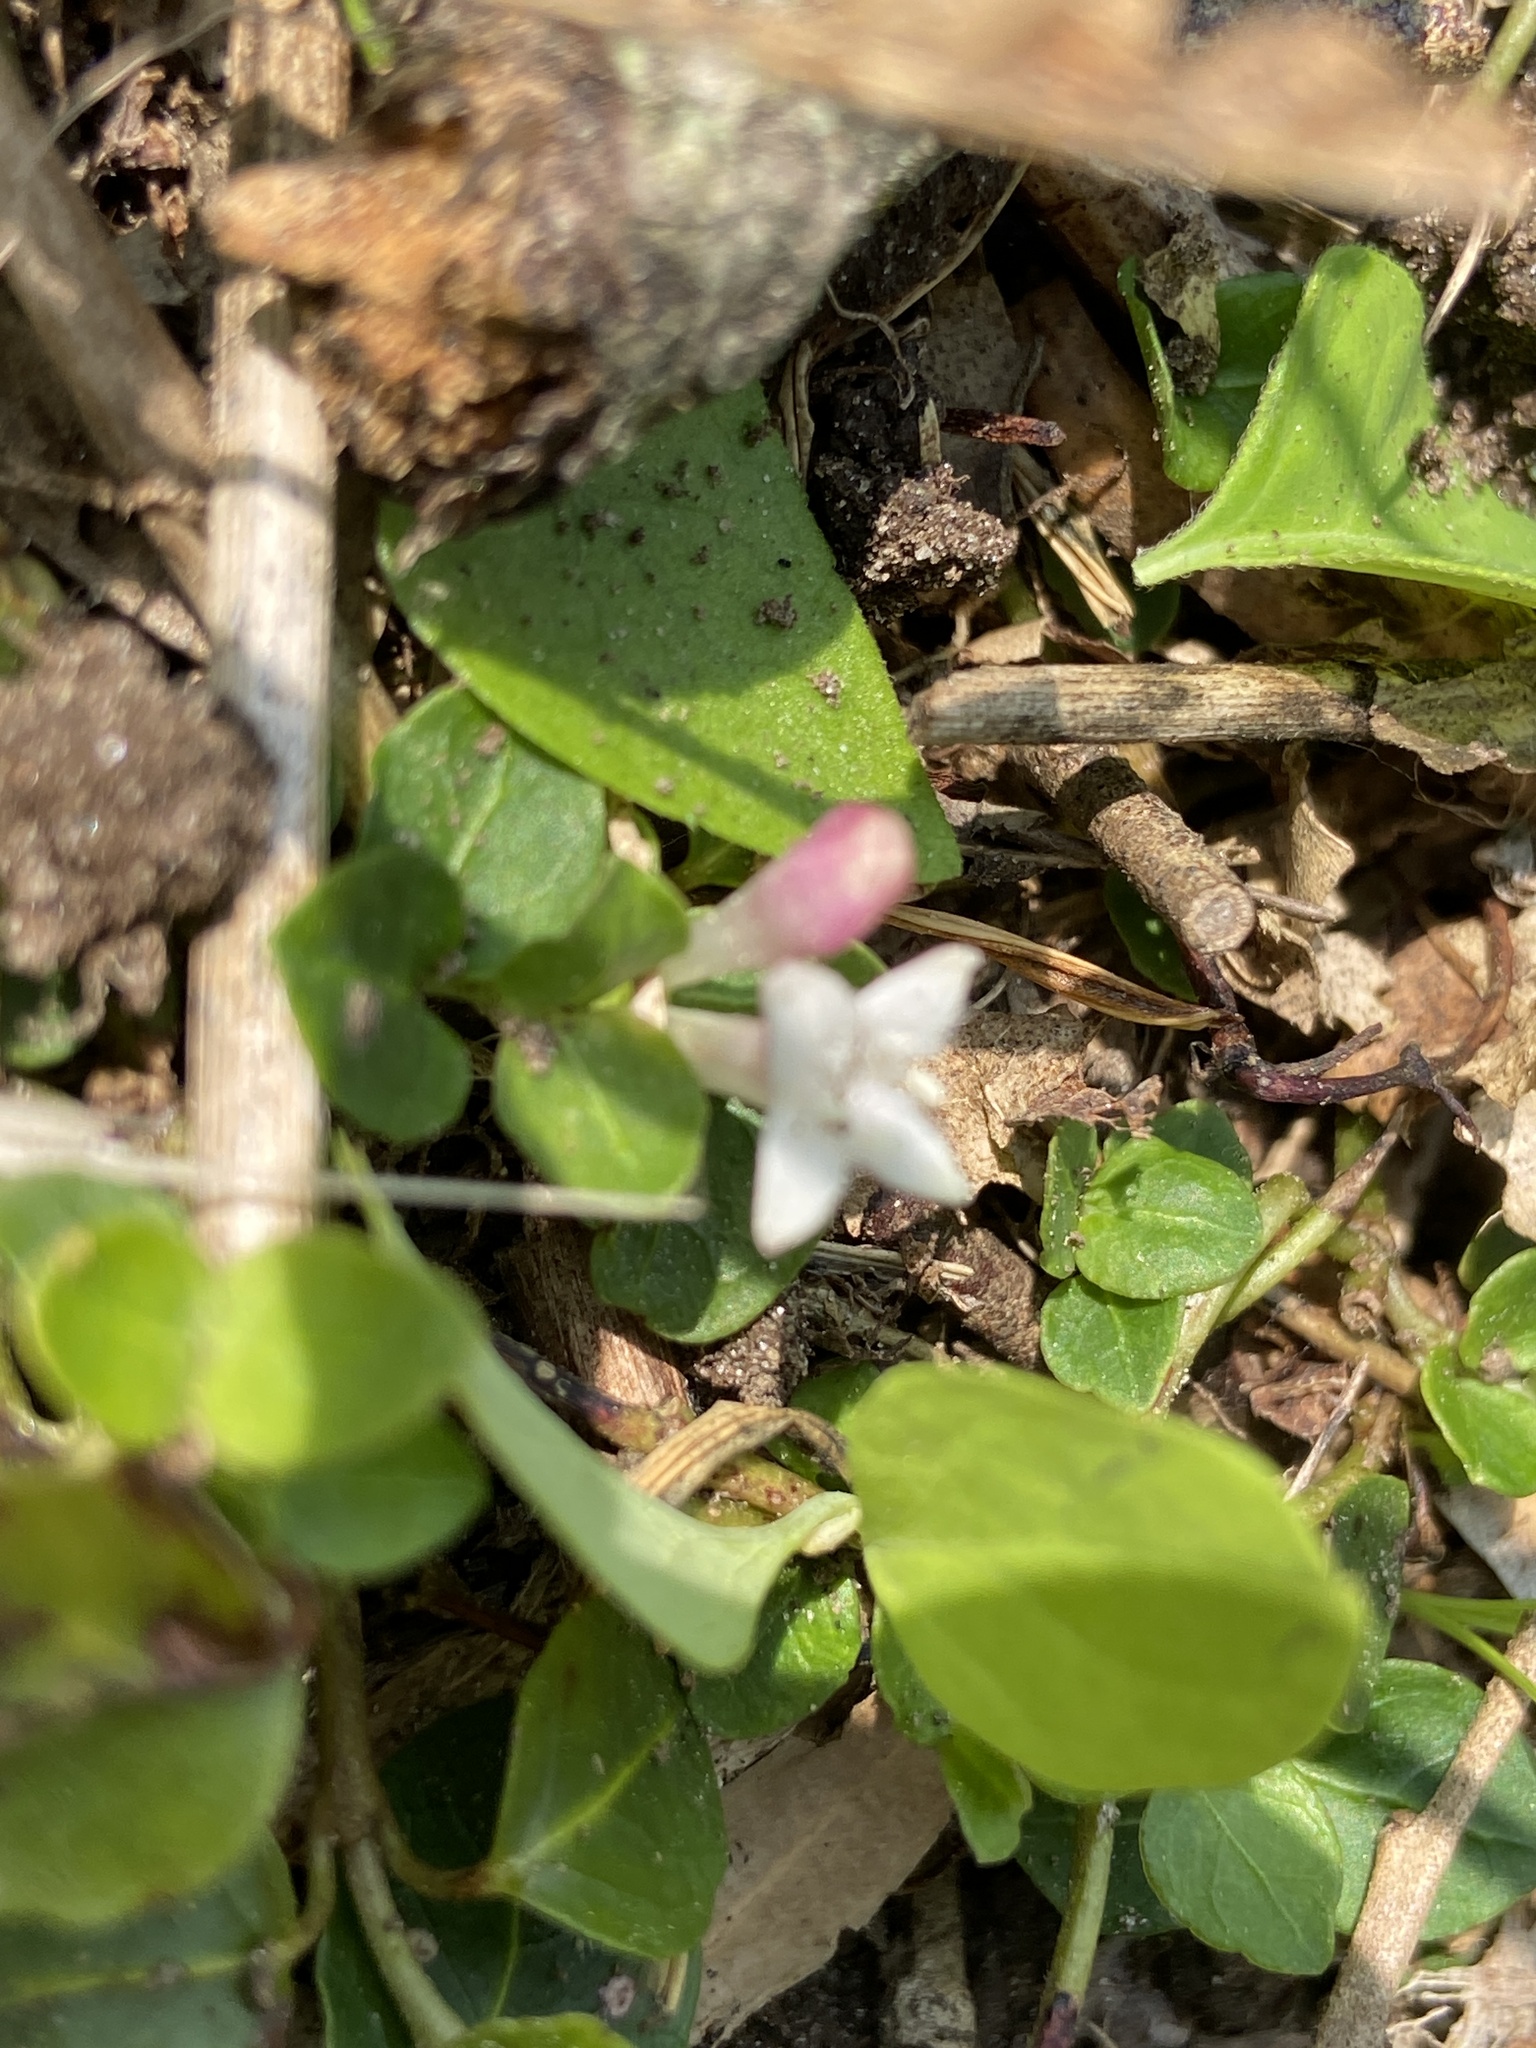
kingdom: Plantae
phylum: Tracheophyta
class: Magnoliopsida
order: Gentianales
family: Rubiaceae
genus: Mitchella
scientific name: Mitchella repens
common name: Partridge-berry
